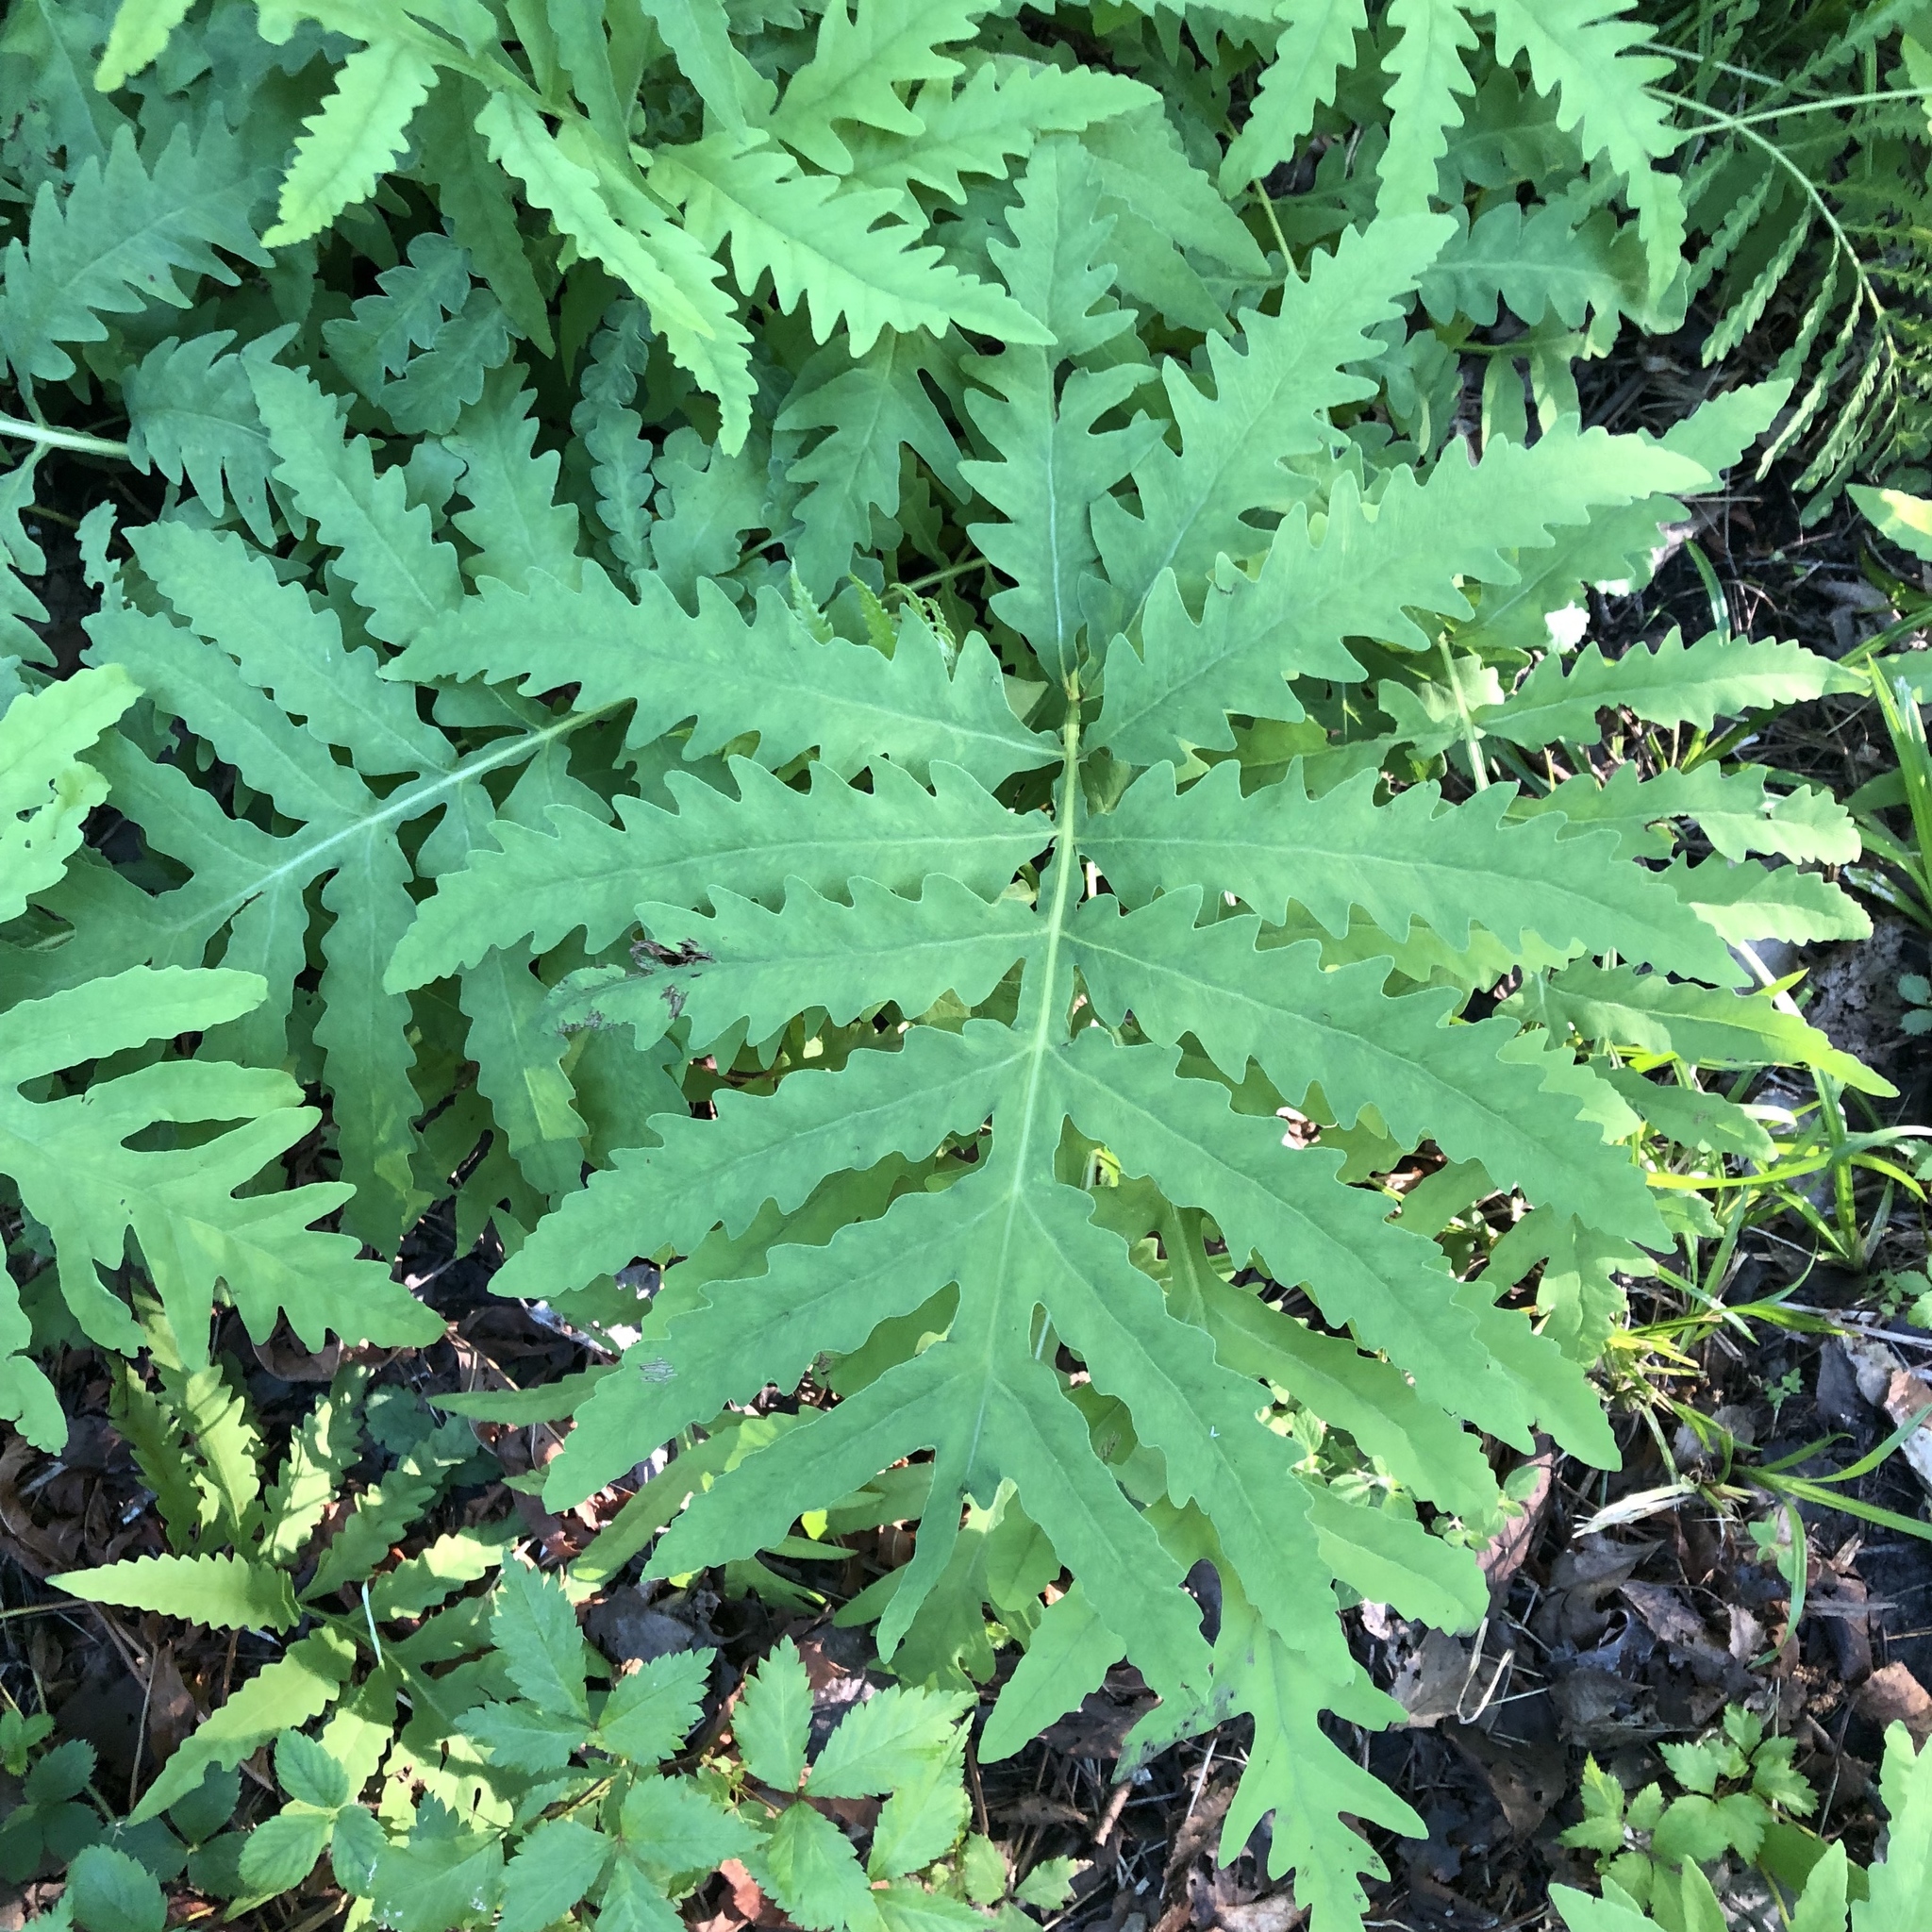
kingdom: Plantae
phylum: Tracheophyta
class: Polypodiopsida
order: Polypodiales
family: Onocleaceae
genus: Onoclea
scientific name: Onoclea sensibilis
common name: Sensitive fern
